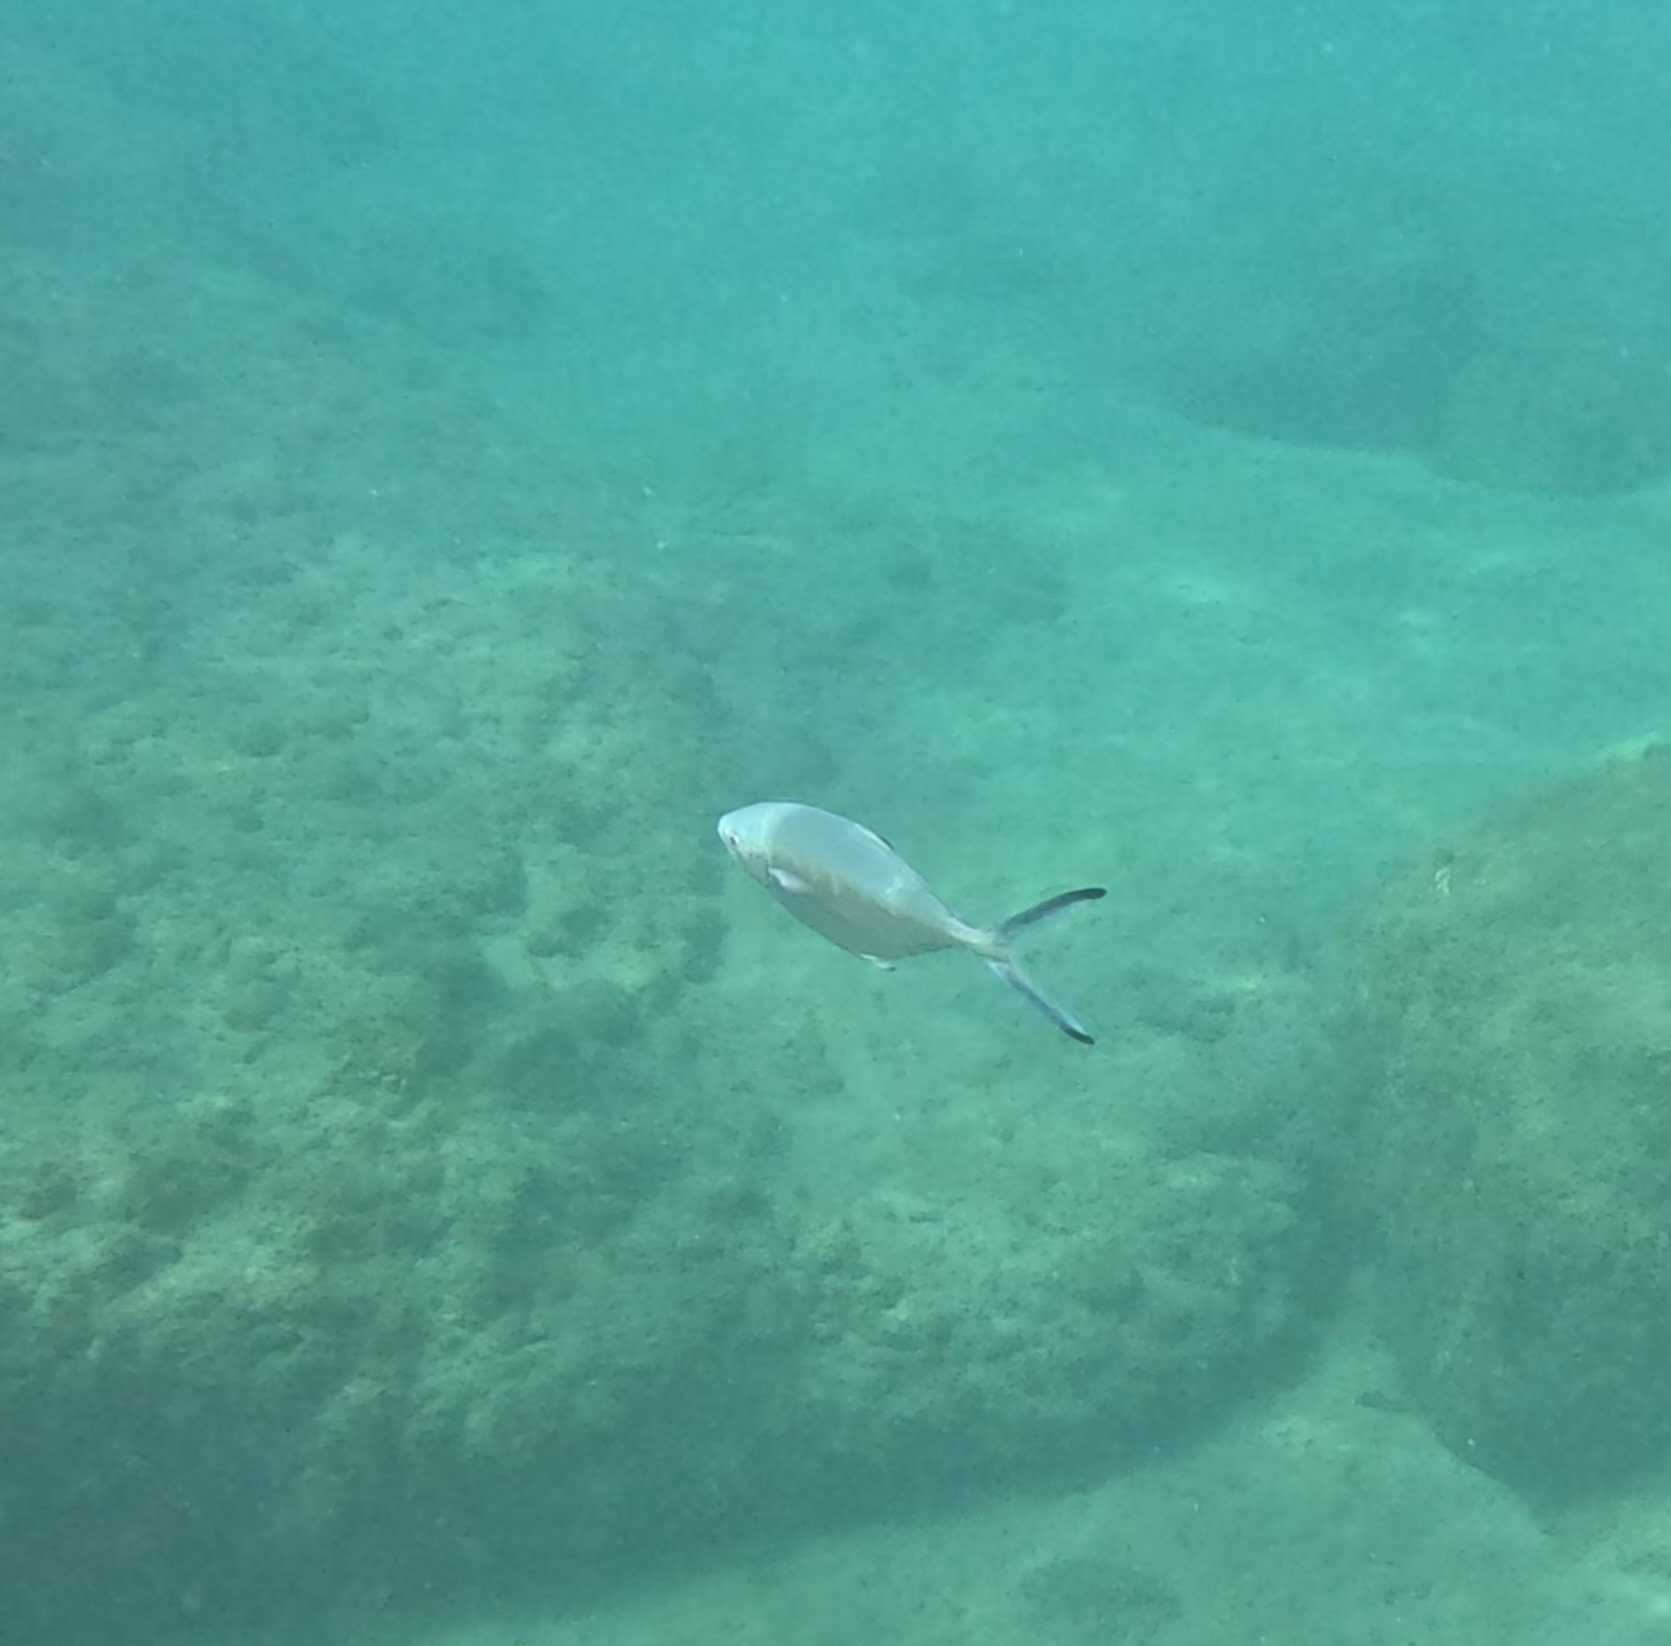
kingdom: Animalia
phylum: Chordata
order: Perciformes
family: Carangidae
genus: Trachinotus
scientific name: Trachinotus ovatus
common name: Pompano
